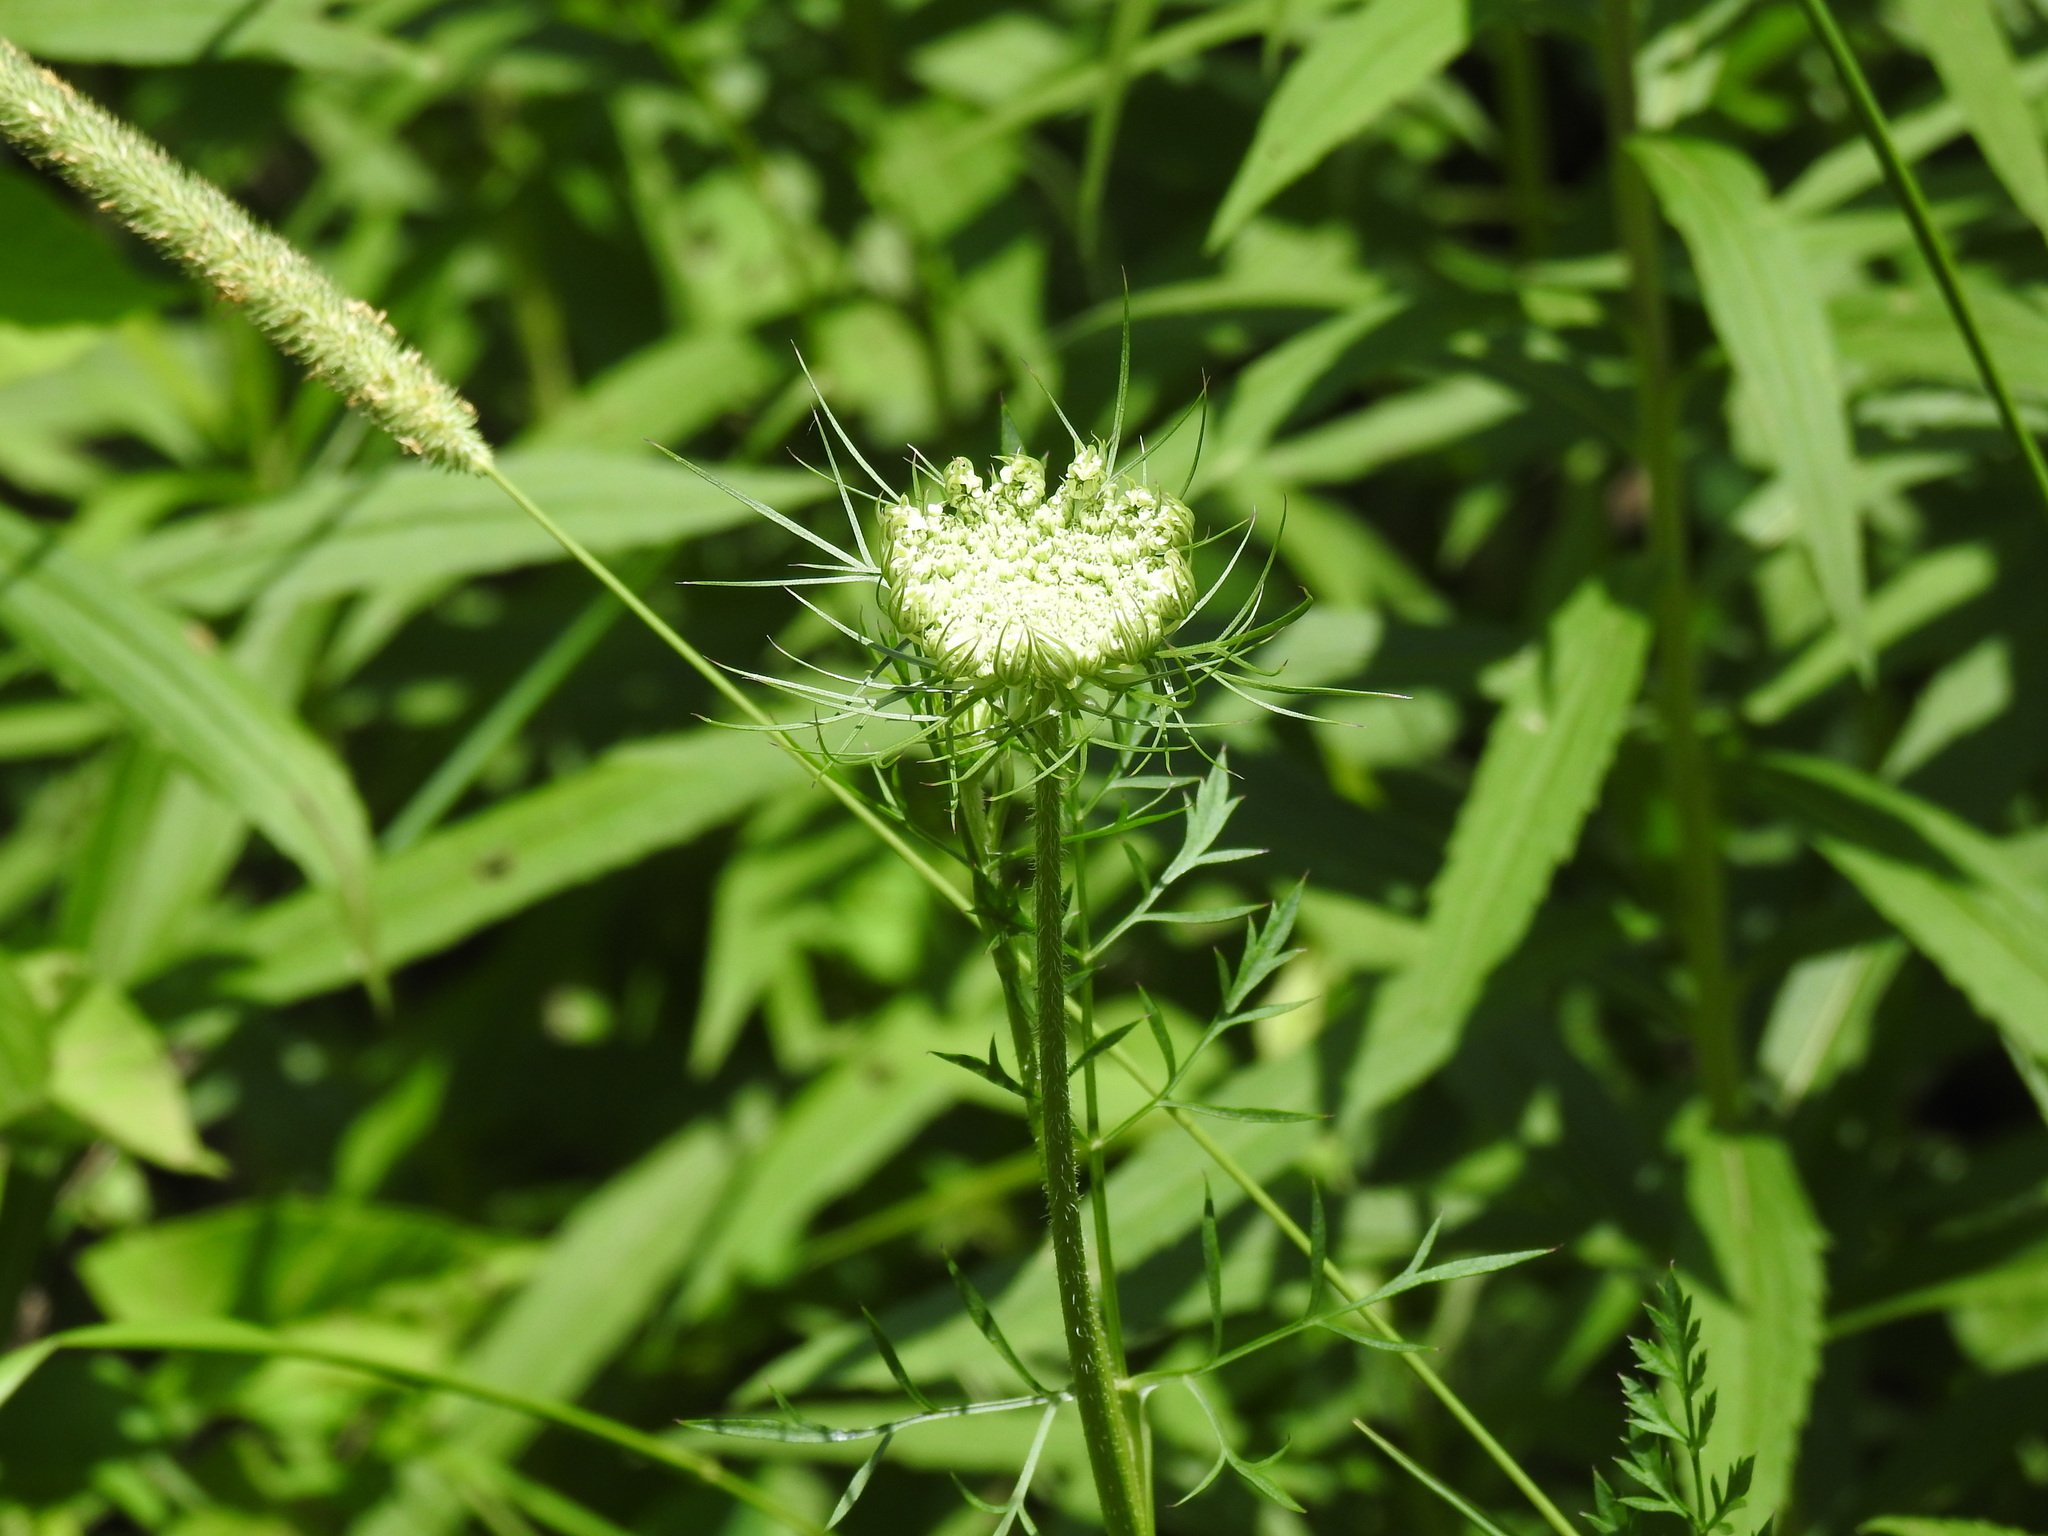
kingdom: Plantae
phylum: Tracheophyta
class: Magnoliopsida
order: Apiales
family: Apiaceae
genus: Daucus
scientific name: Daucus carota
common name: Wild carrot
